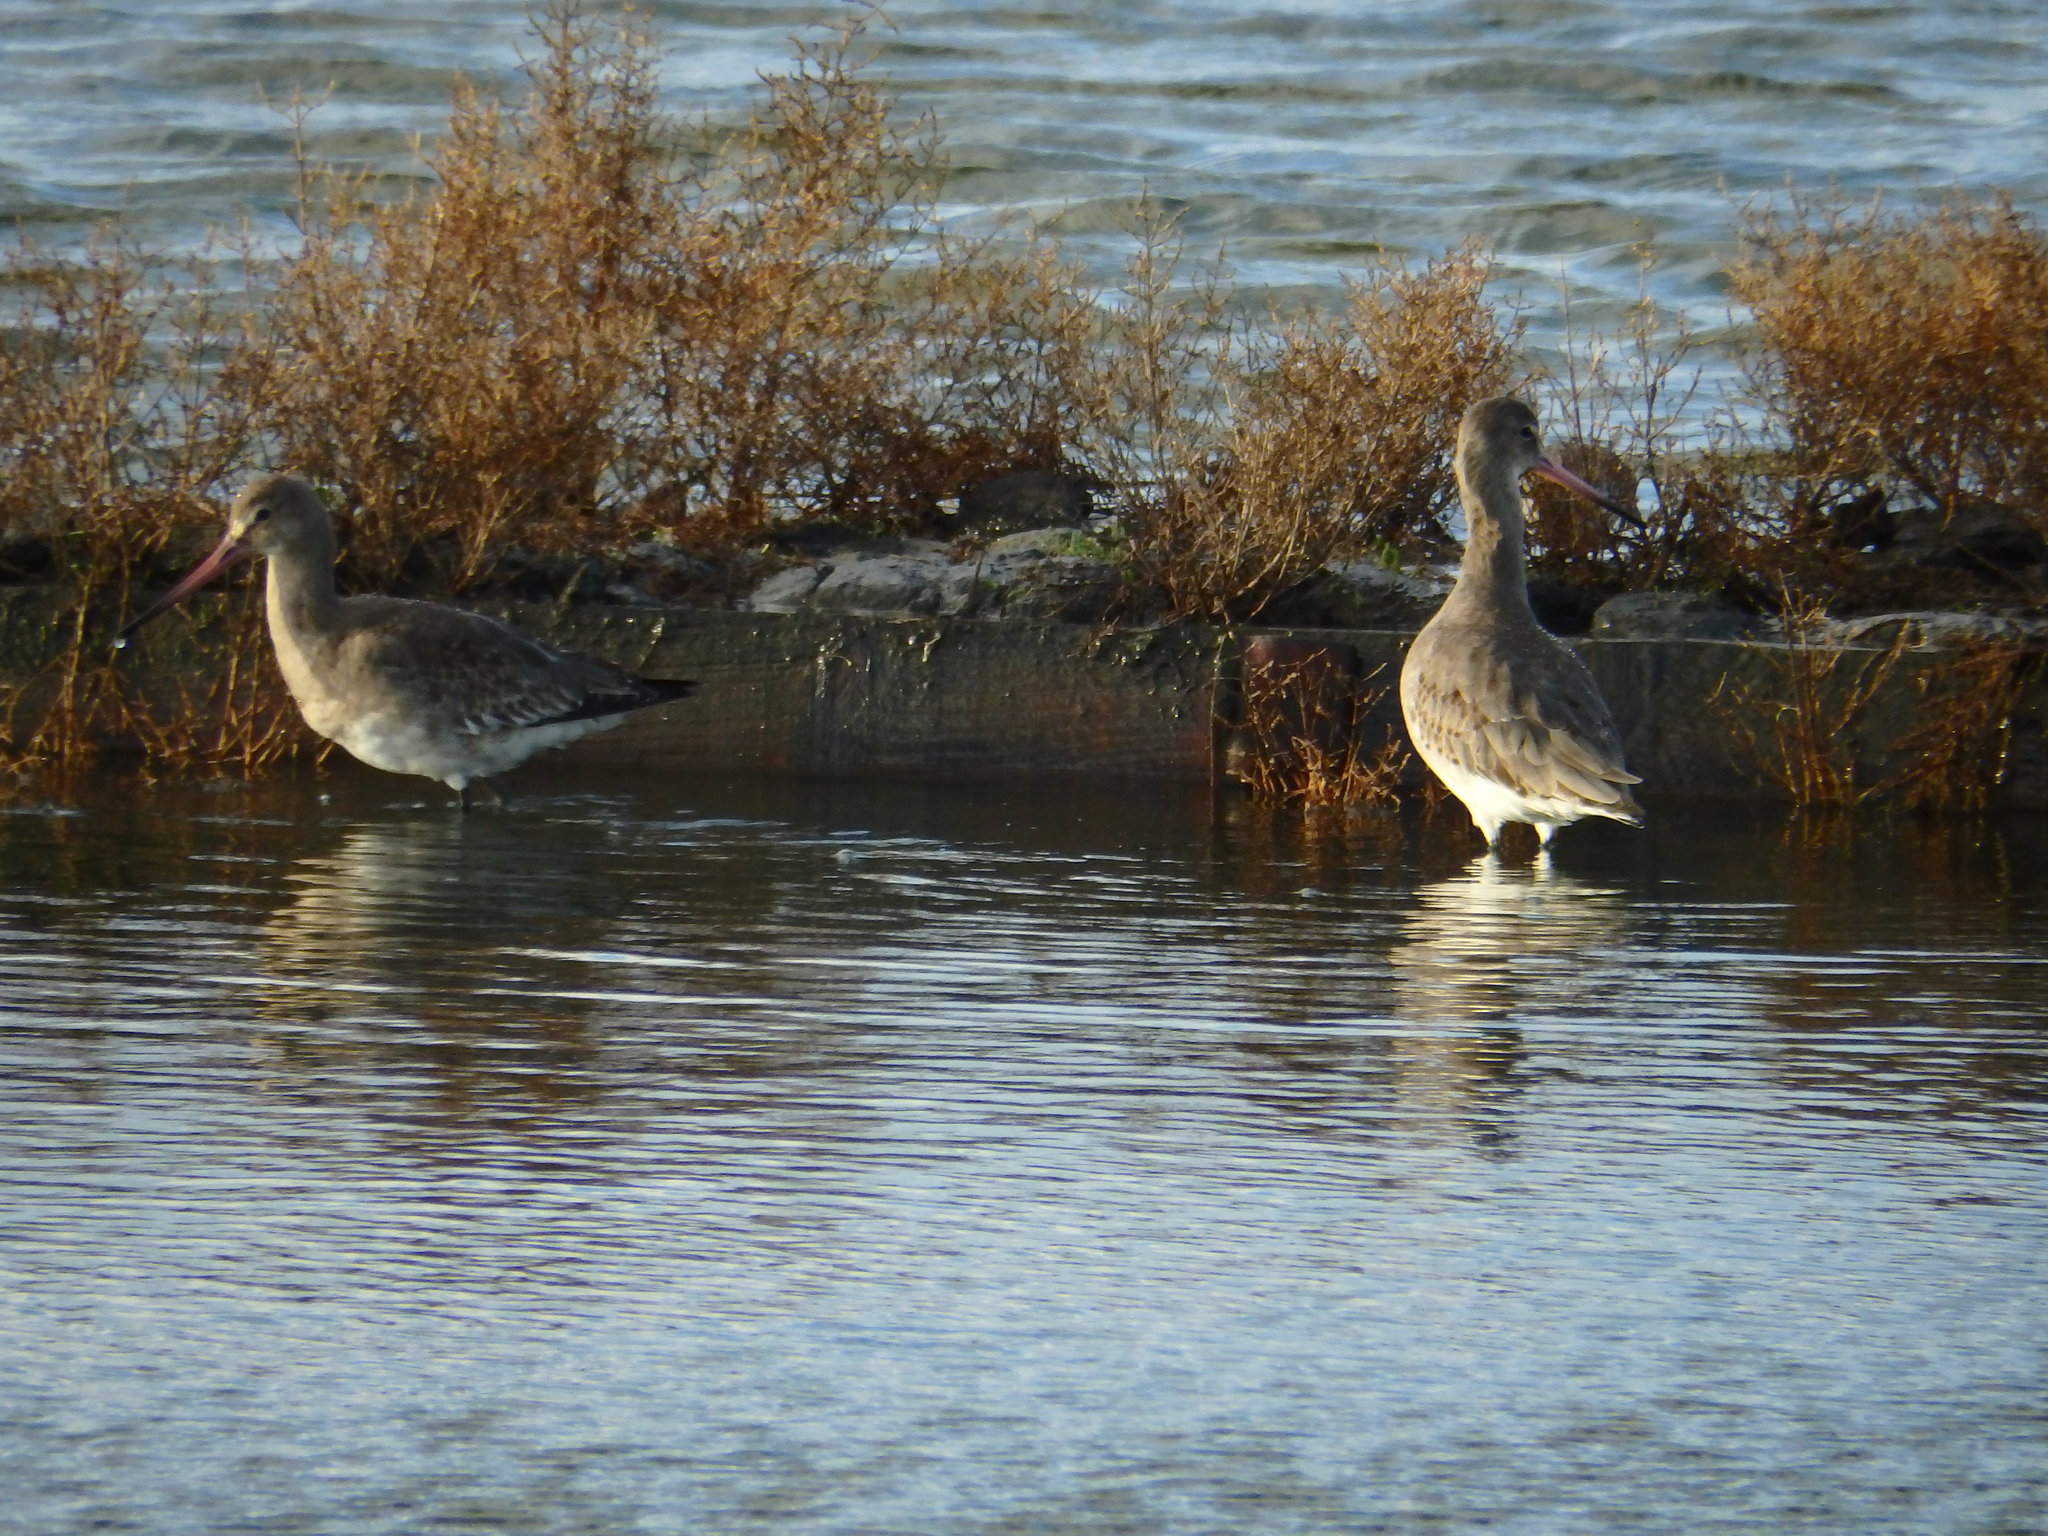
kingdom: Animalia
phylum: Chordata
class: Aves
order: Charadriiformes
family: Scolopacidae
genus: Limosa
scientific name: Limosa limosa
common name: Black-tailed godwit
